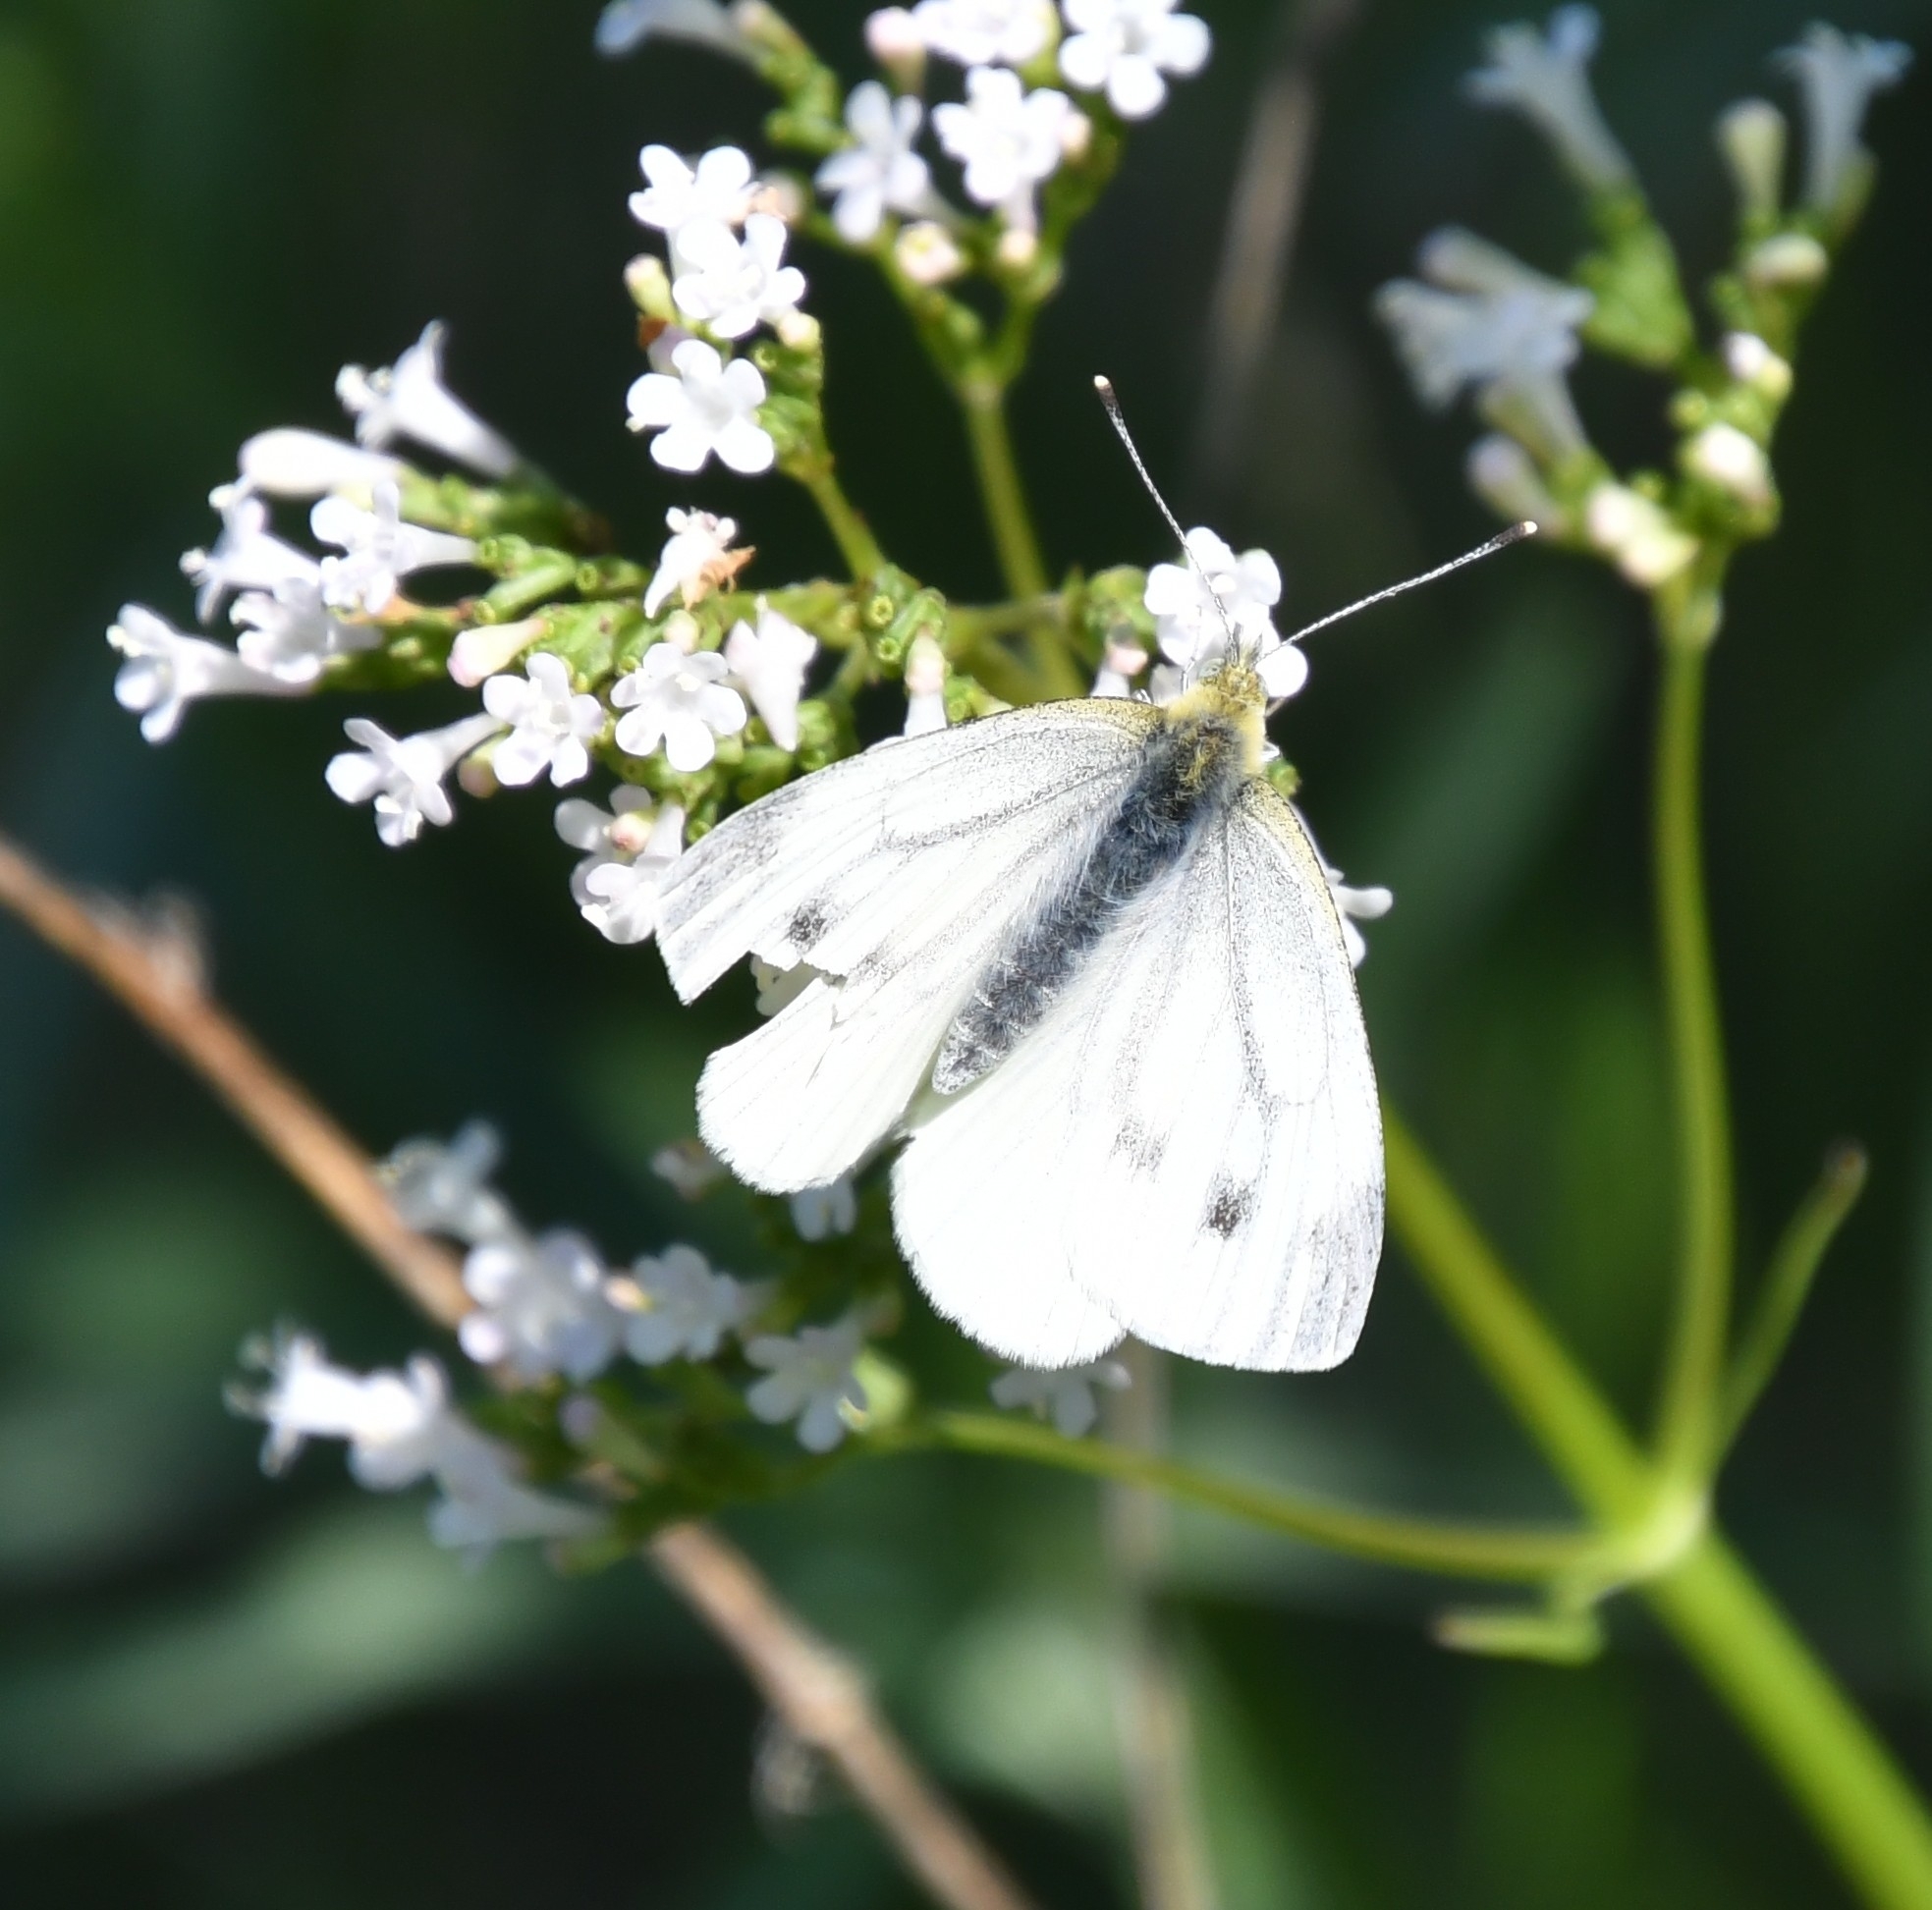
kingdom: Animalia
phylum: Arthropoda
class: Insecta
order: Lepidoptera
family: Pieridae
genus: Pieris
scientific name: Pieris napi
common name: Green-veined white
